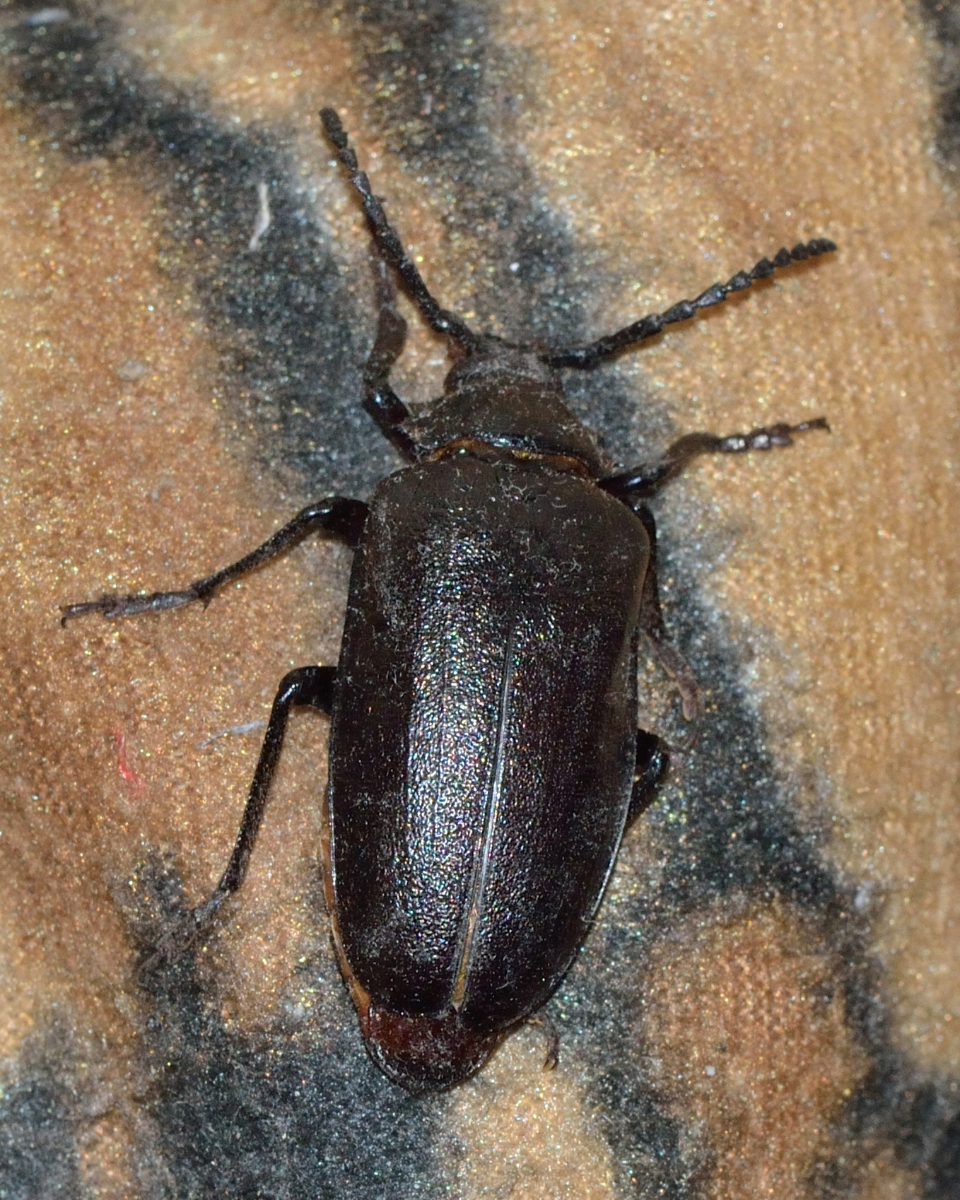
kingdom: Animalia
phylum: Arthropoda
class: Insecta
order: Coleoptera
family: Cerambycidae
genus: Prionus
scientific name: Prionus coriarius
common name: Tanner beetle
